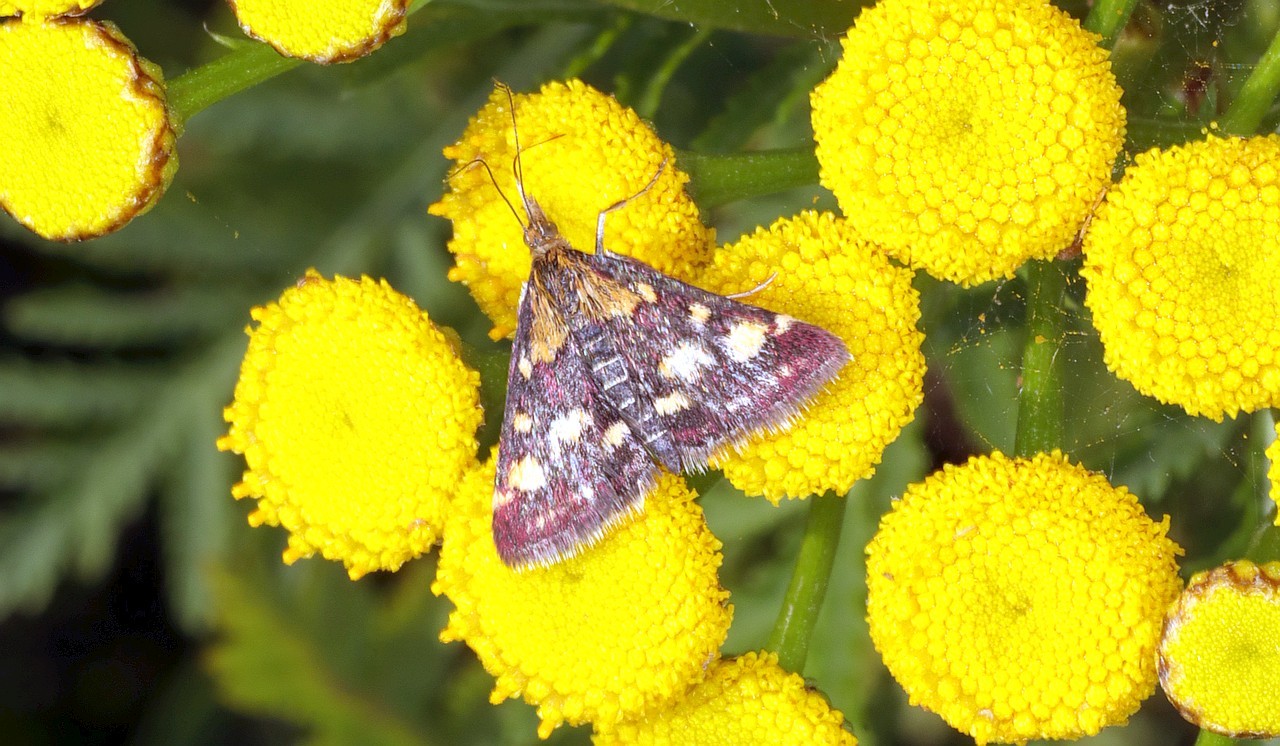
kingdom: Animalia
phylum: Arthropoda
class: Insecta
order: Lepidoptera
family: Crambidae
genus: Pyrausta
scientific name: Pyrausta purpuralis
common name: Common purple & gold
